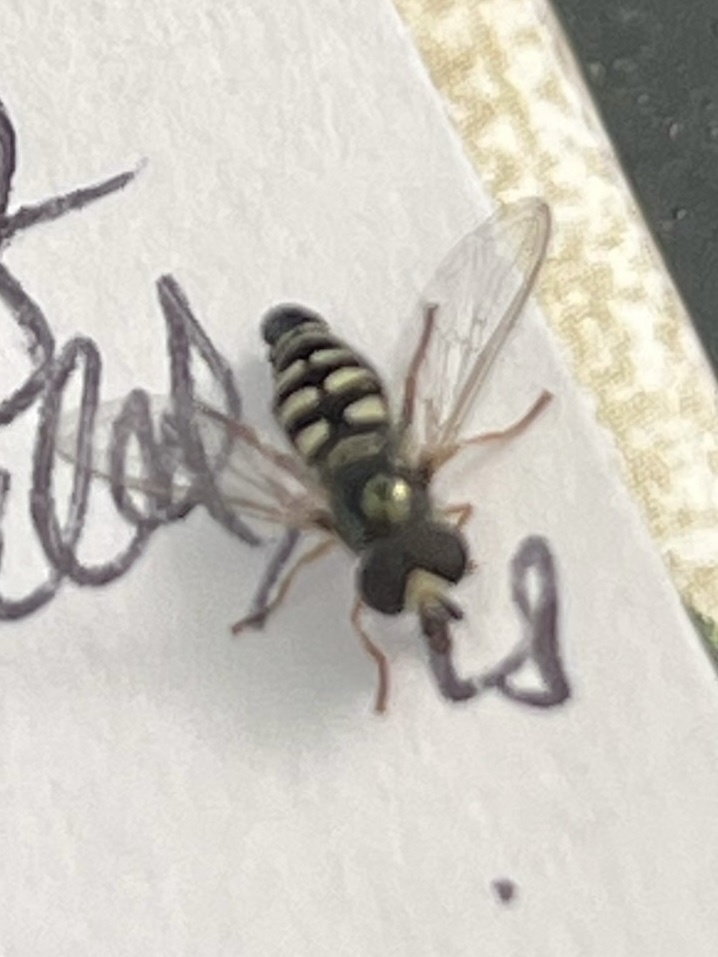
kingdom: Animalia
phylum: Arthropoda
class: Insecta
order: Diptera
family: Syrphidae
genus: Eupeodes
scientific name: Eupeodes volucris
